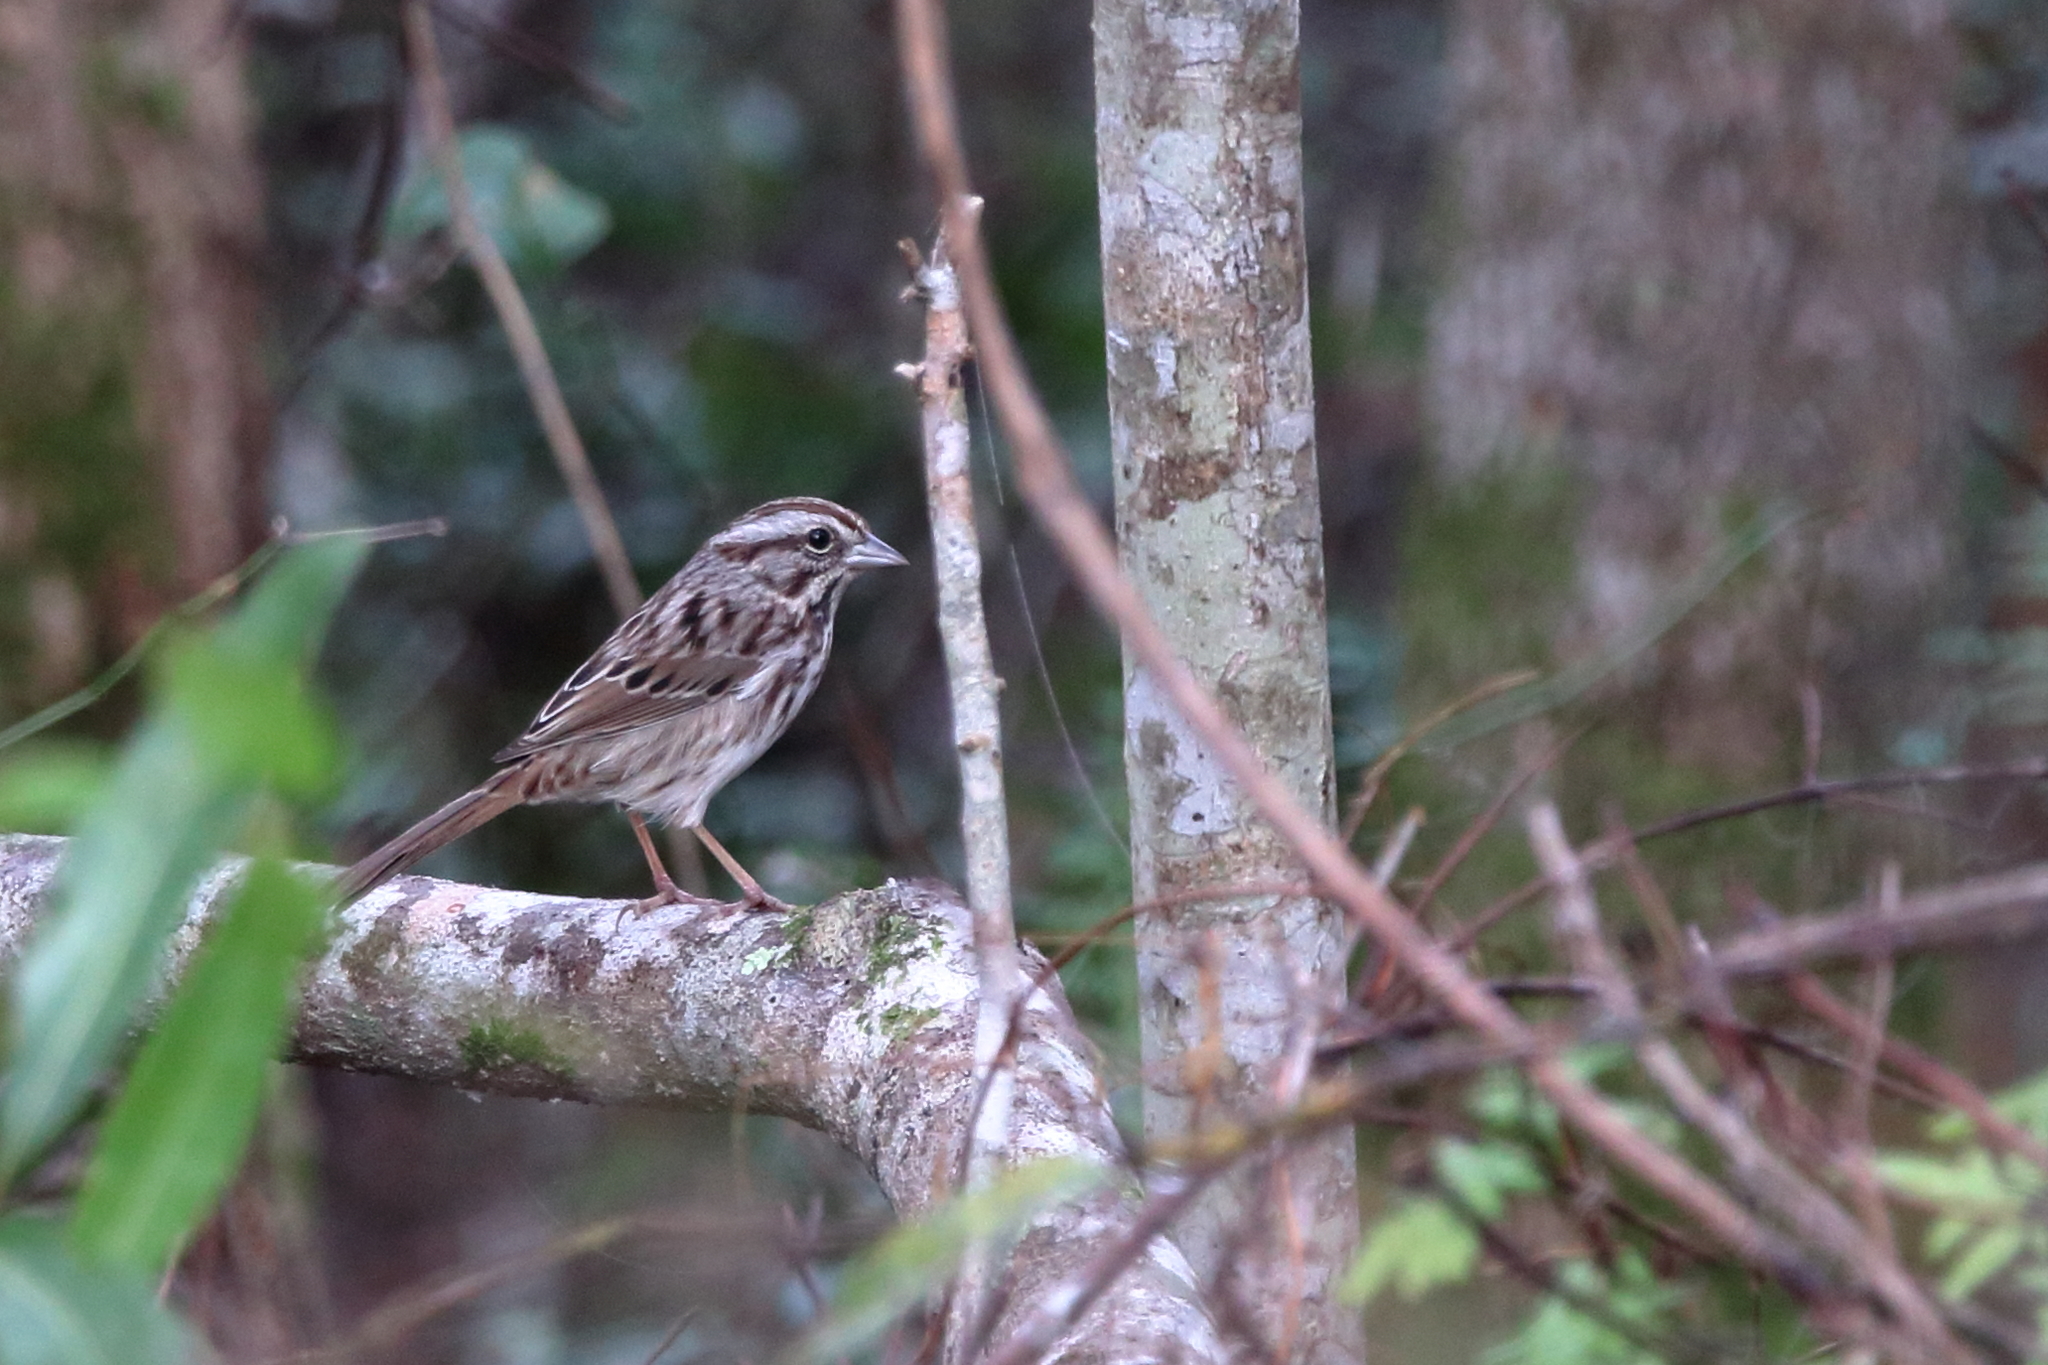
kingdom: Animalia
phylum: Chordata
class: Aves
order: Passeriformes
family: Passerellidae
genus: Melospiza
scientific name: Melospiza melodia
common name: Song sparrow
